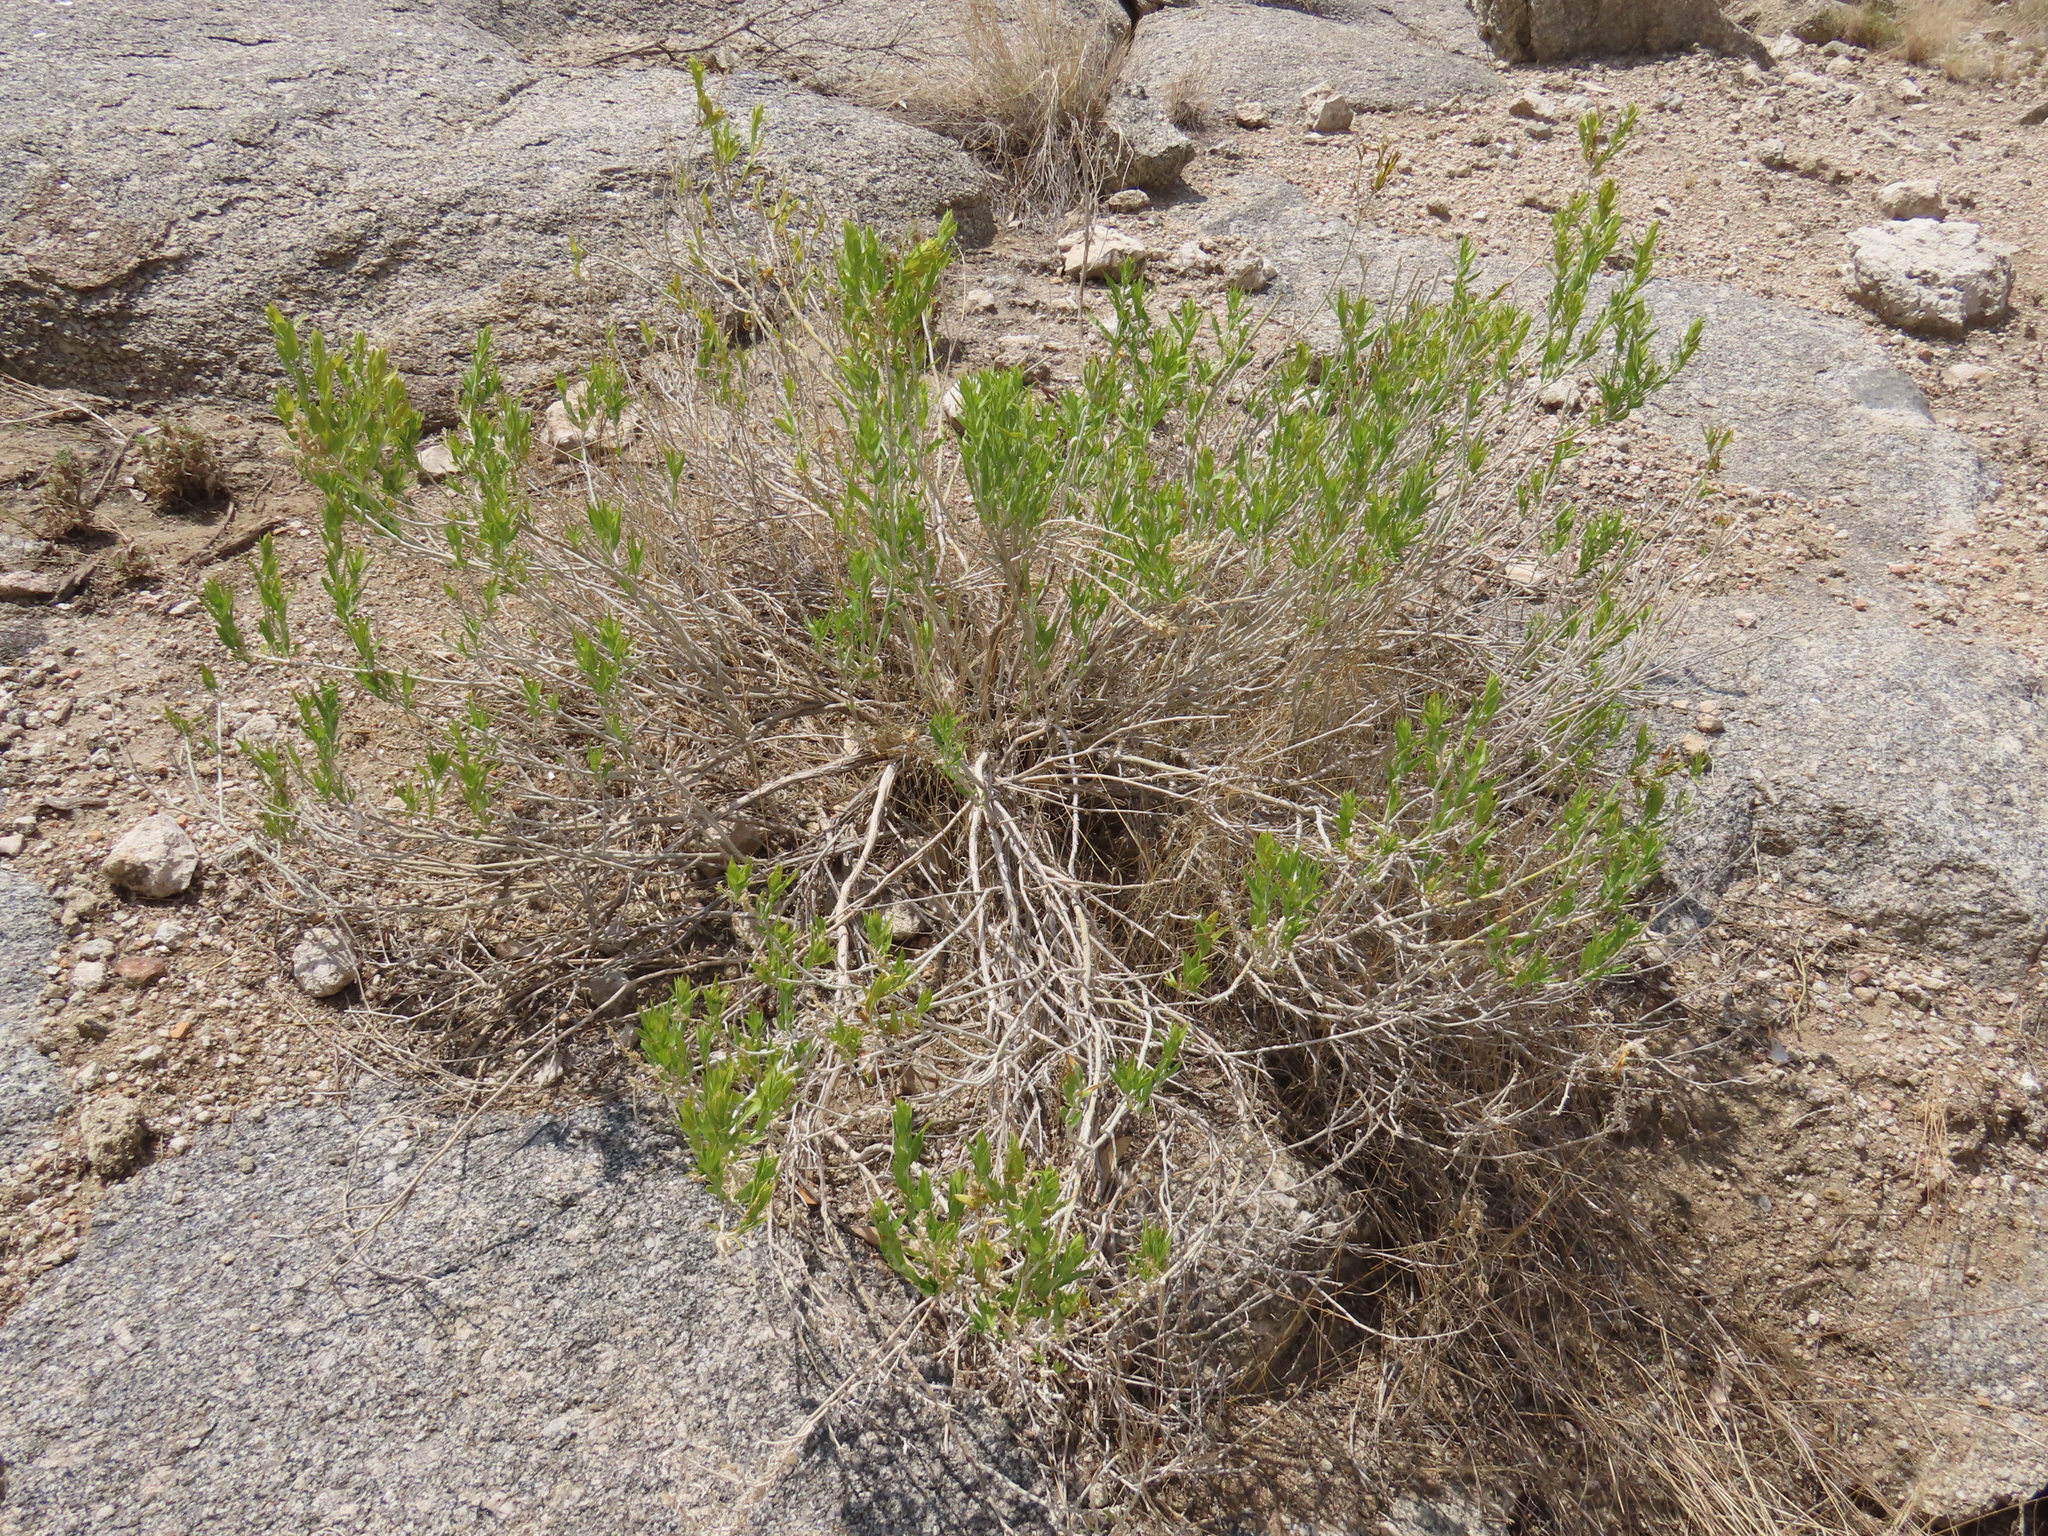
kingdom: Plantae
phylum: Tracheophyta
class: Magnoliopsida
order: Lamiales
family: Acanthaceae
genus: Monechma
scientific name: Monechma genistifolium
